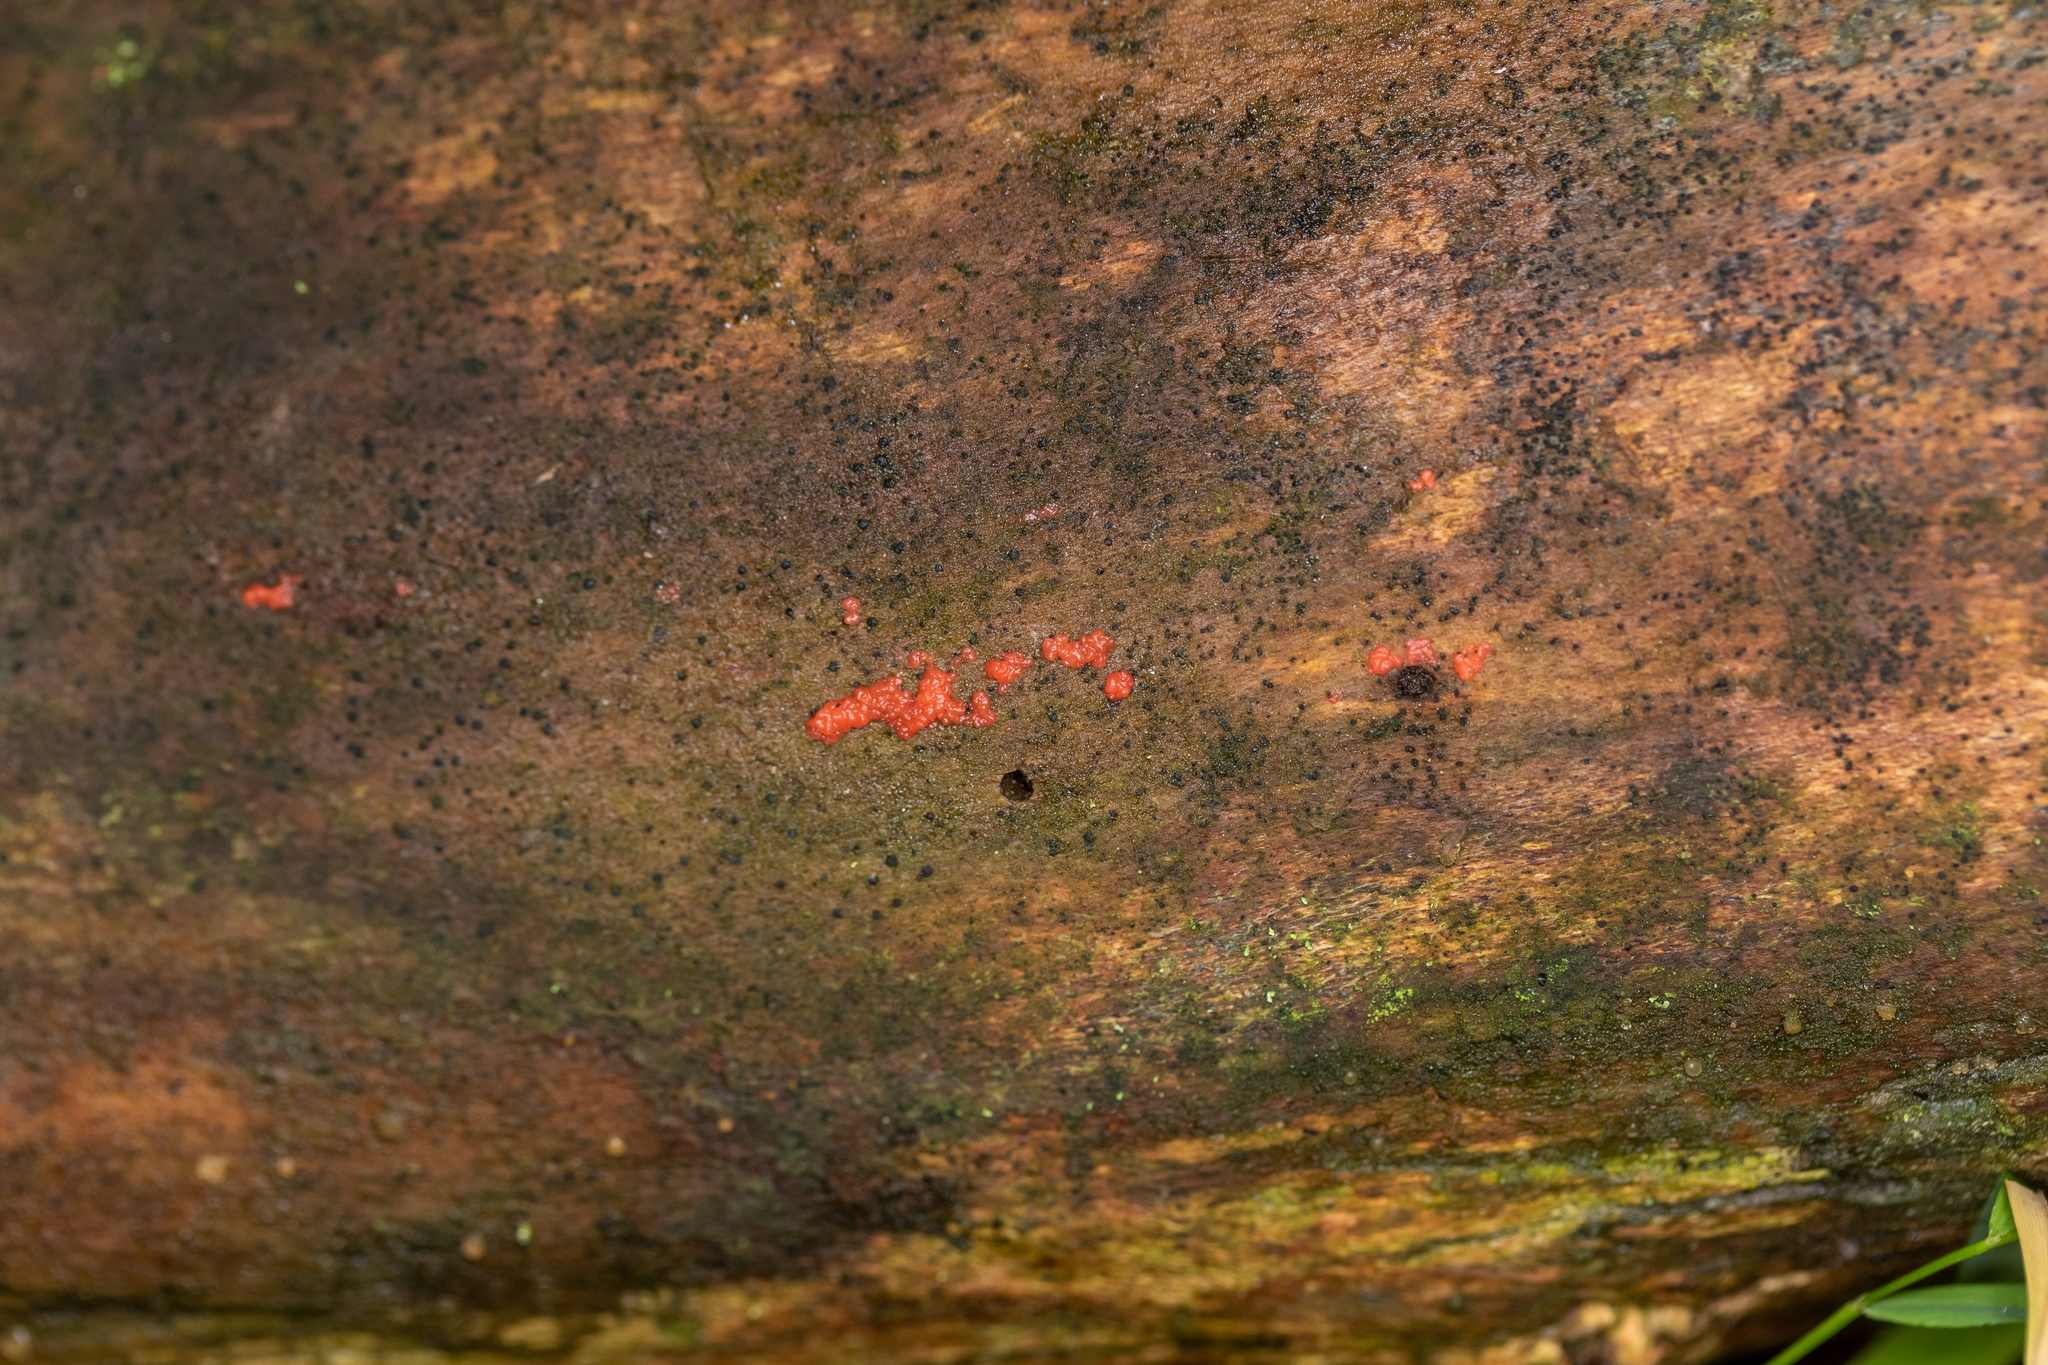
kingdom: Fungi
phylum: Basidiomycota
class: Agaricomycetes
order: Cantharellales
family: Tulasnellaceae
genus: Tulasnella
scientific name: Tulasnella aurantiaca
